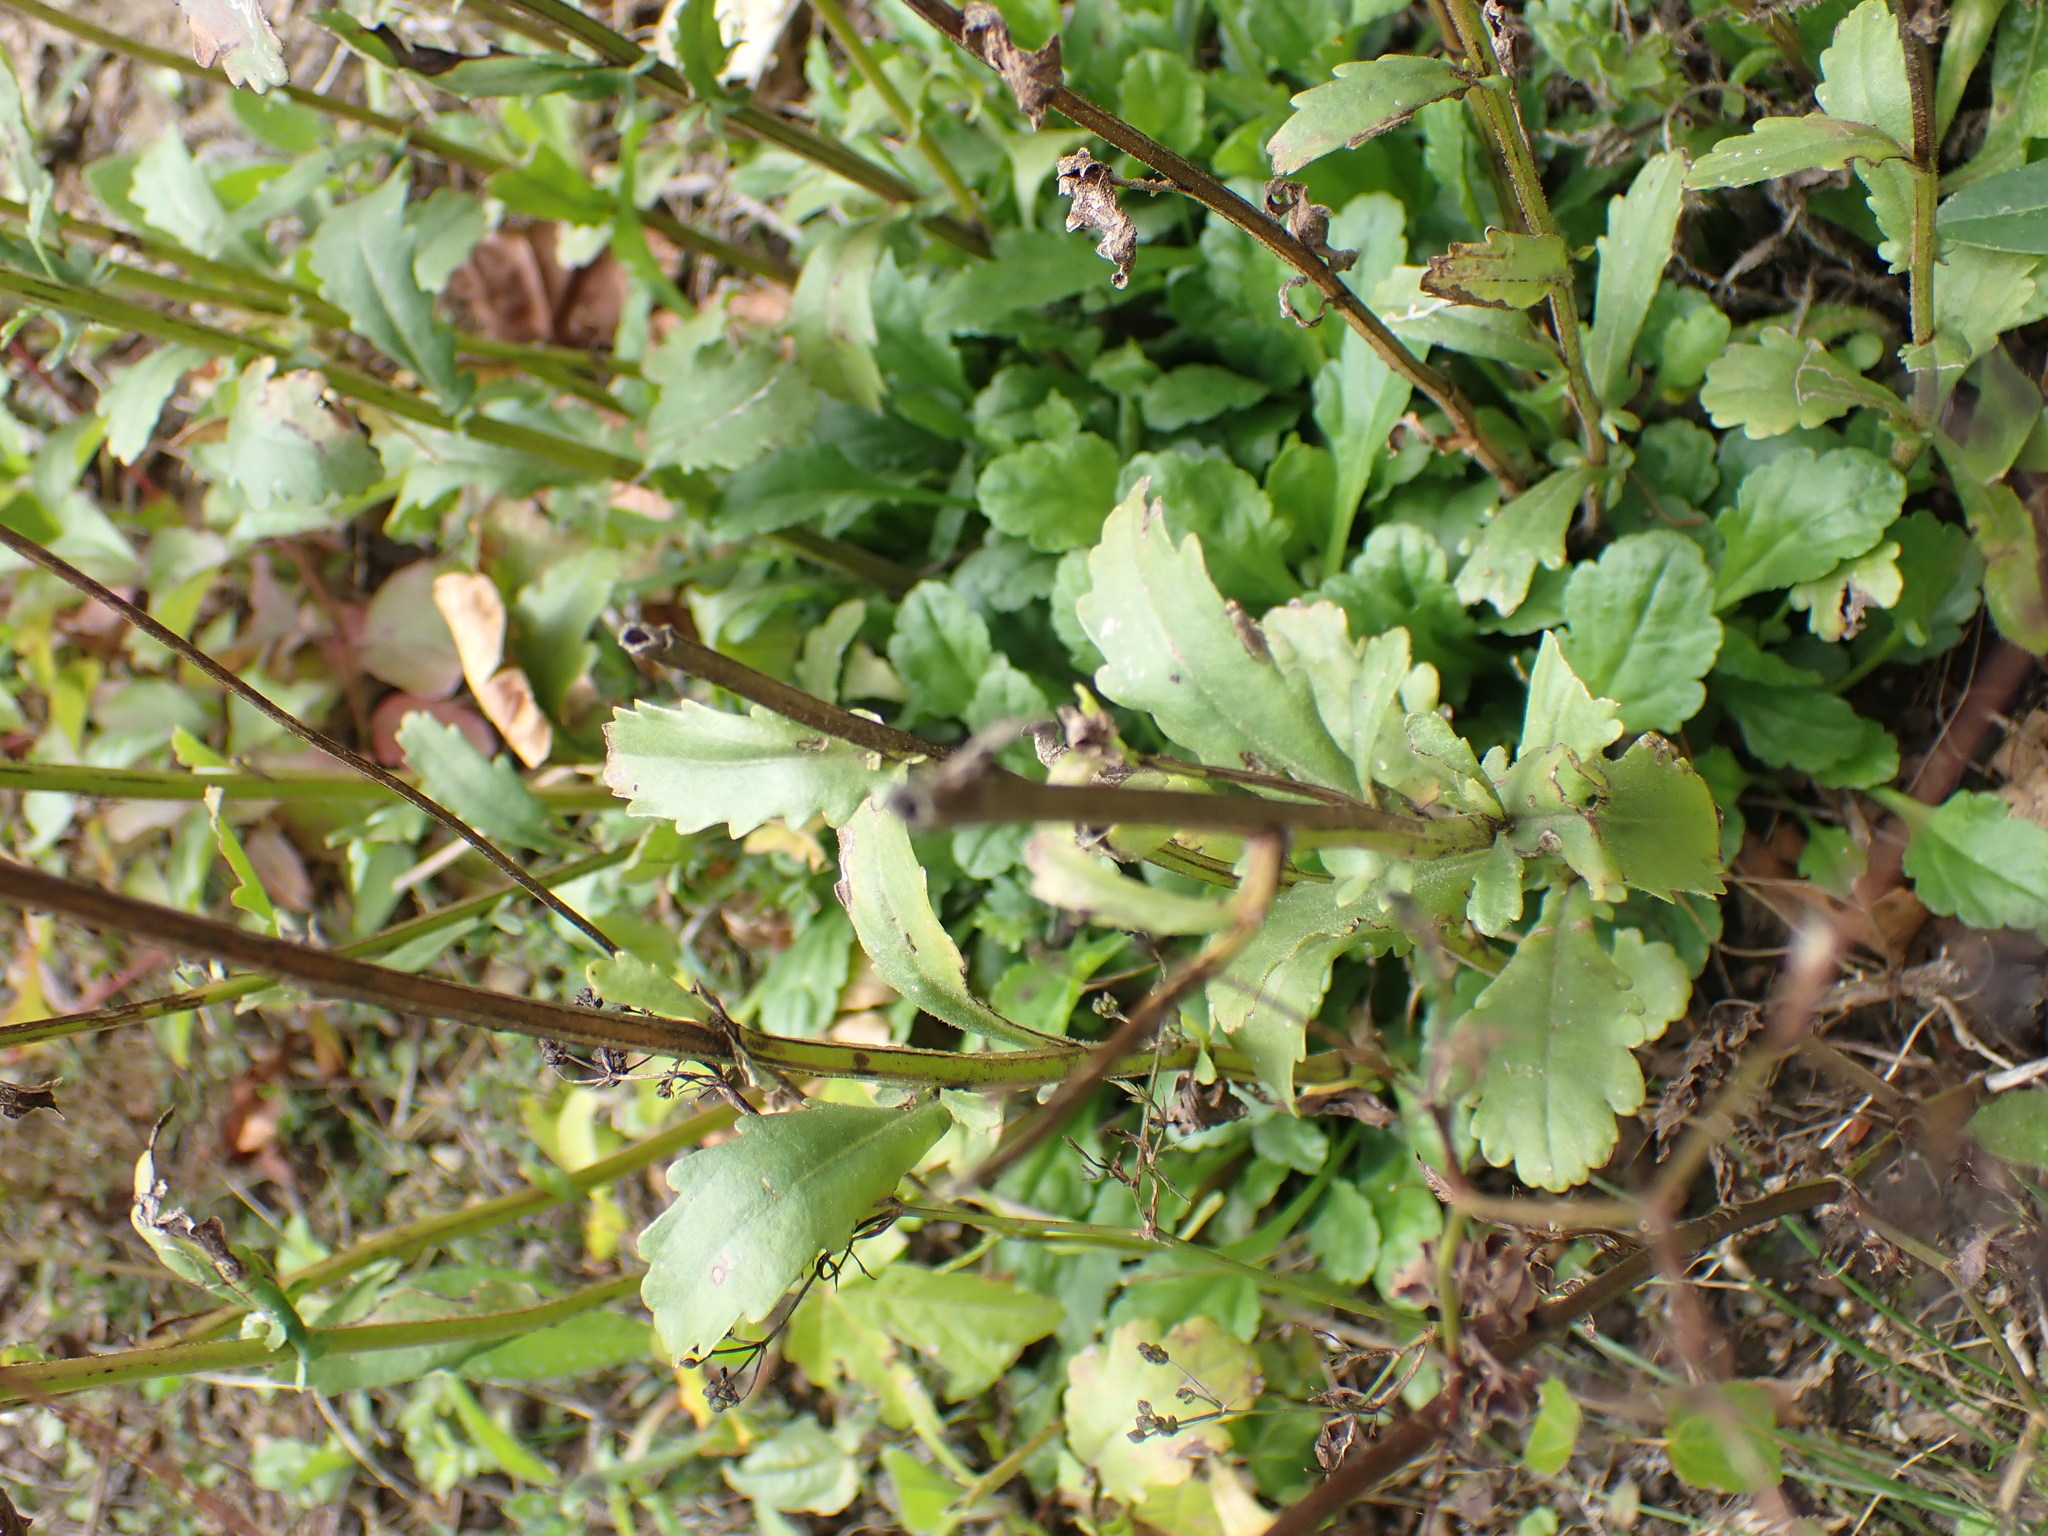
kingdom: Plantae
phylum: Tracheophyta
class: Magnoliopsida
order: Asterales
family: Asteraceae
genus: Leucanthemum
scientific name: Leucanthemum vulgare
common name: Oxeye daisy
